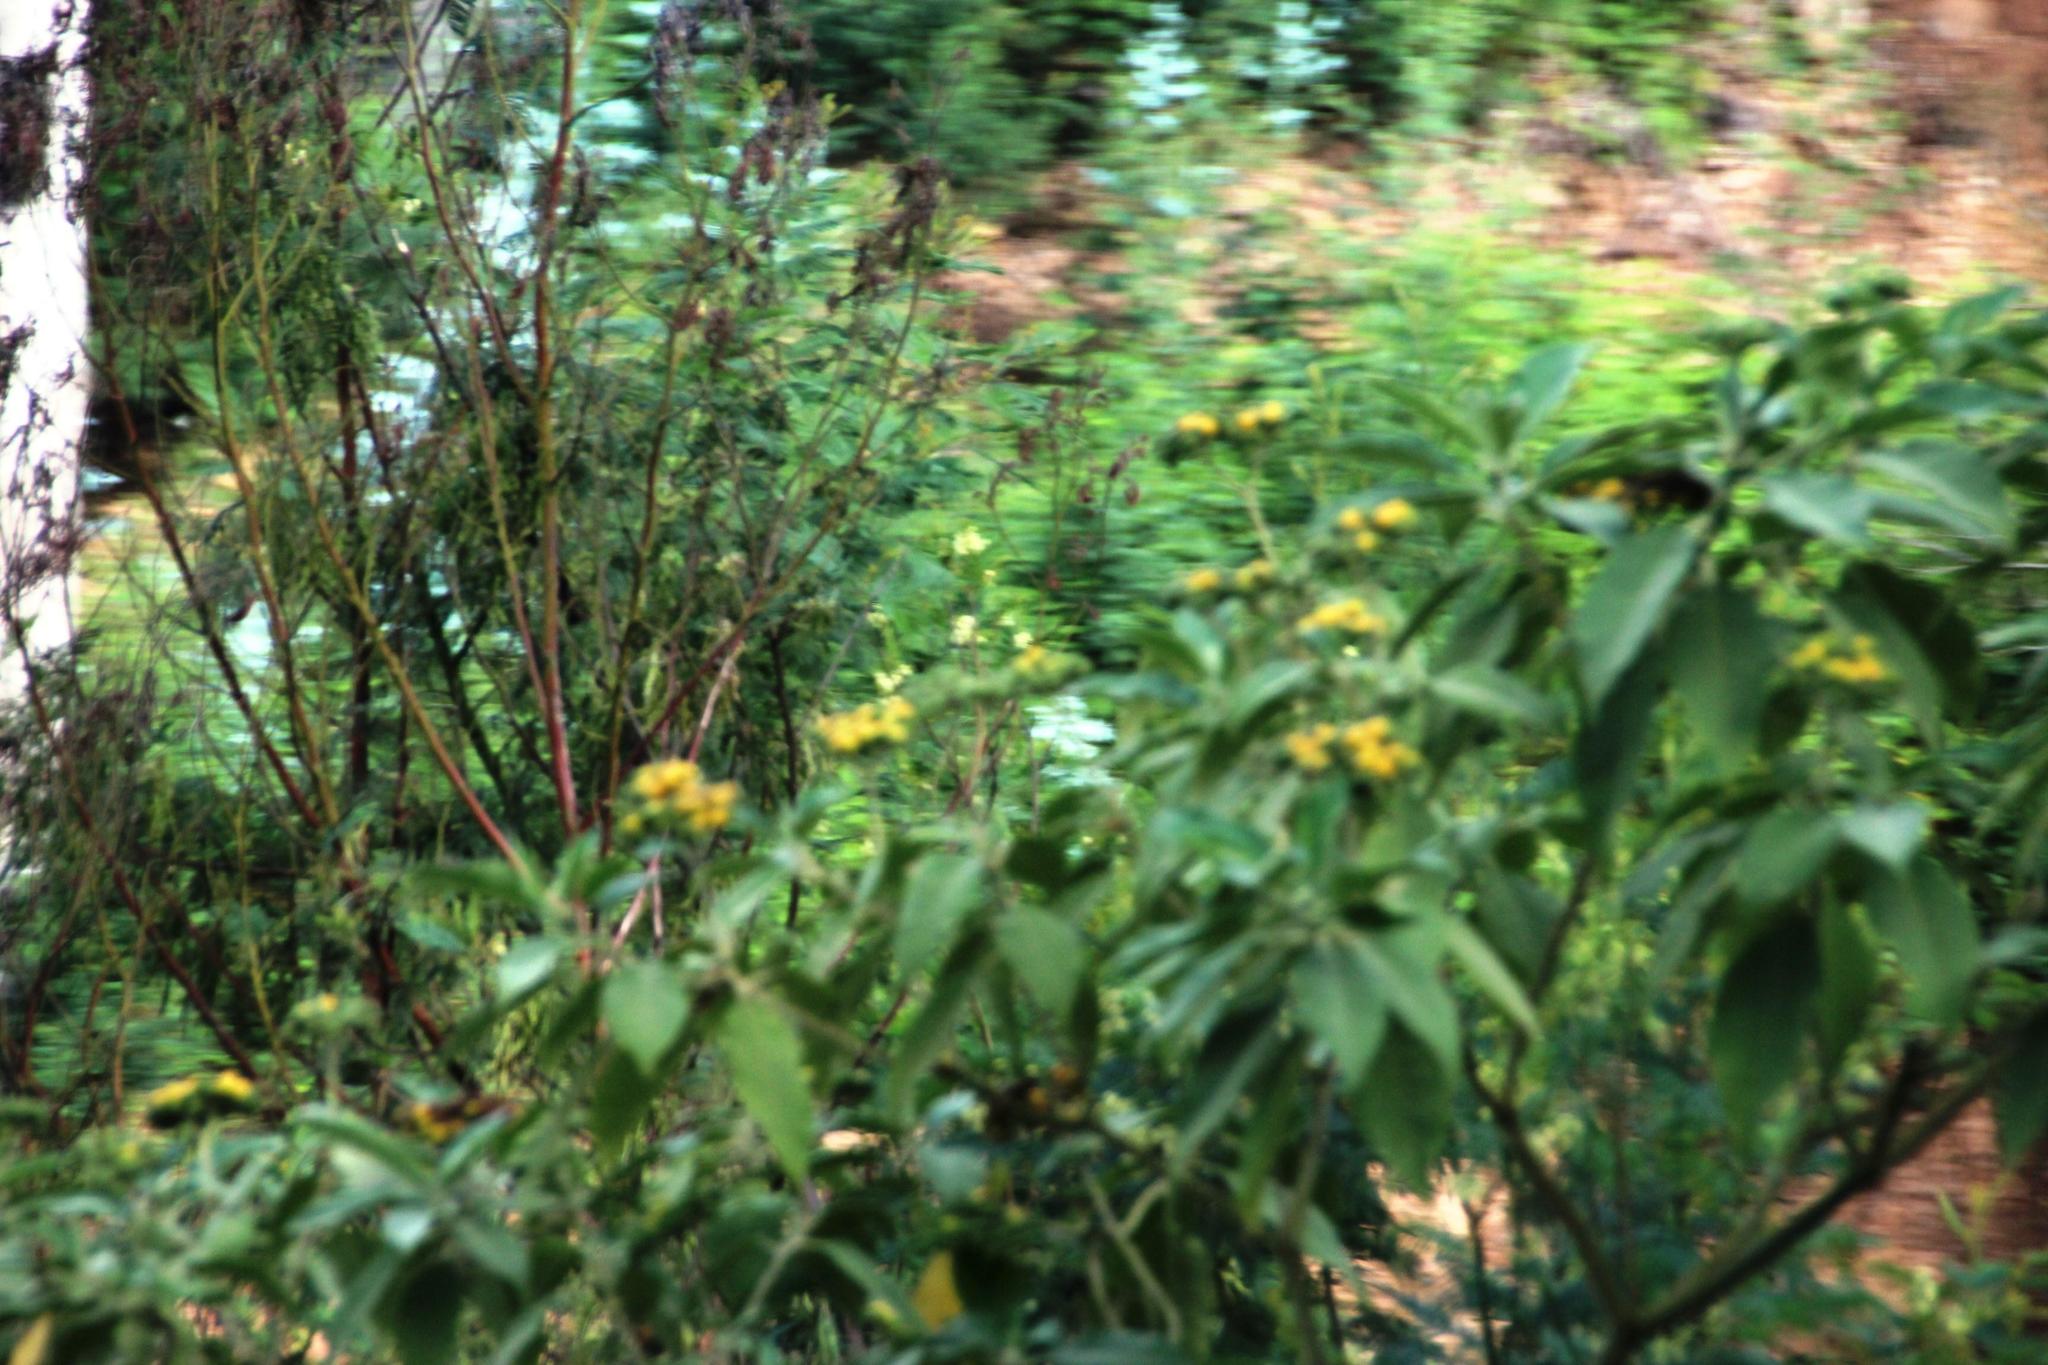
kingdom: Plantae
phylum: Tracheophyta
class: Magnoliopsida
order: Solanales
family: Solanaceae
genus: Solanum
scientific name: Solanum mauritianum
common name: Earleaf nightshade
